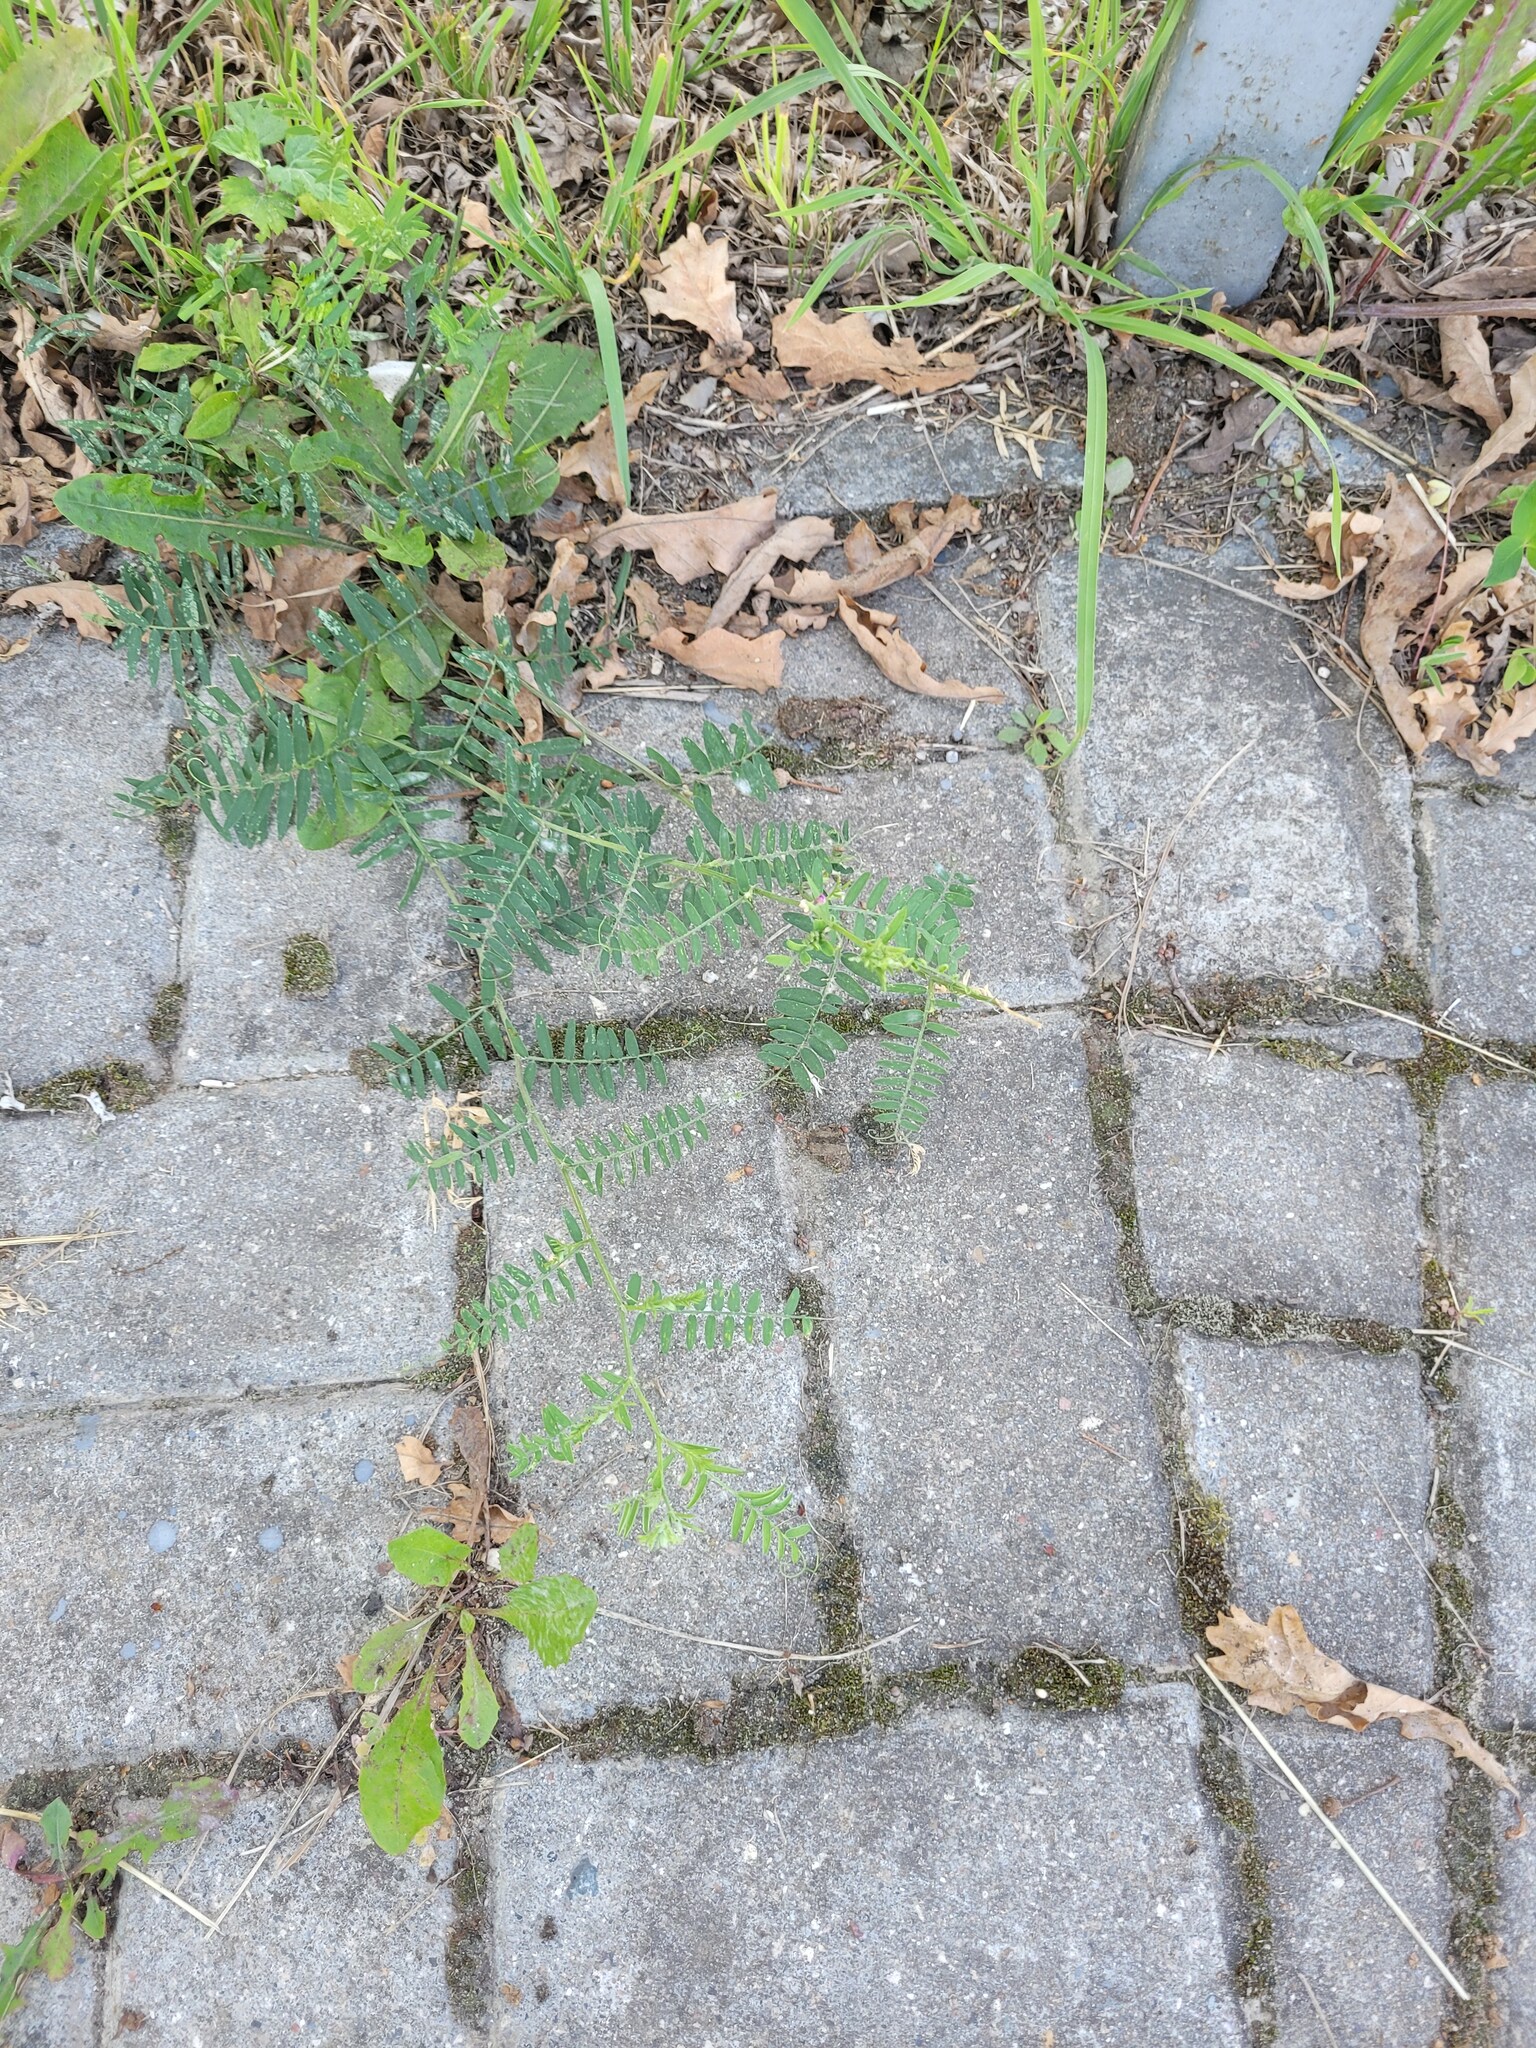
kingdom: Plantae
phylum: Tracheophyta
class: Magnoliopsida
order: Fabales
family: Fabaceae
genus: Vicia
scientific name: Vicia cracca
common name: Bird vetch
